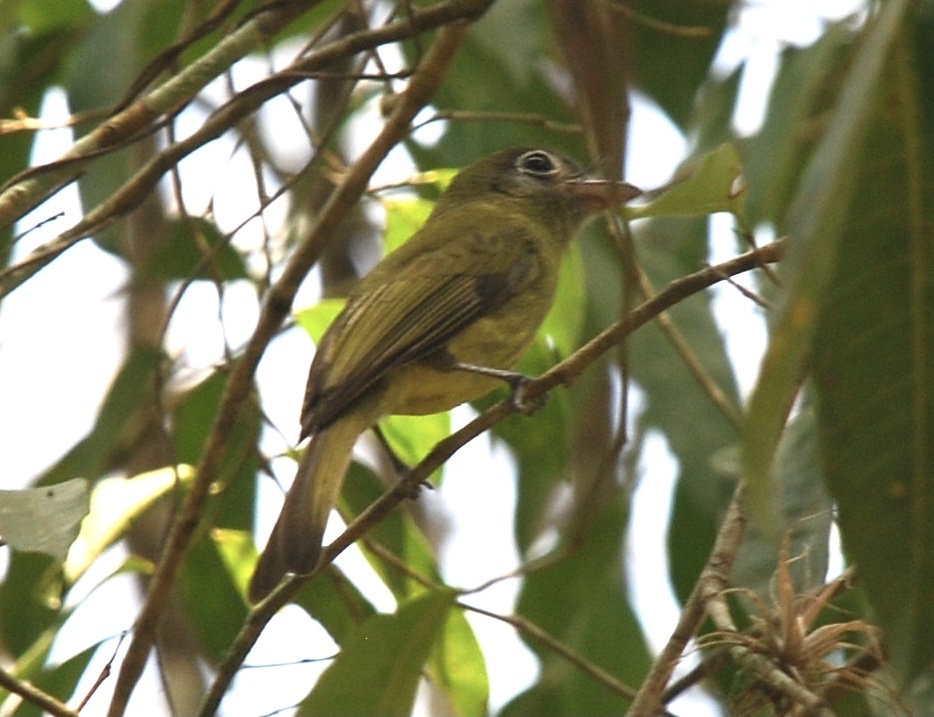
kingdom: Animalia
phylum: Chordata
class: Aves
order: Passeriformes
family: Tyrannidae
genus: Rhynchocyclus
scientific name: Rhynchocyclus brevirostris
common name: Eye-ringed flatbill
